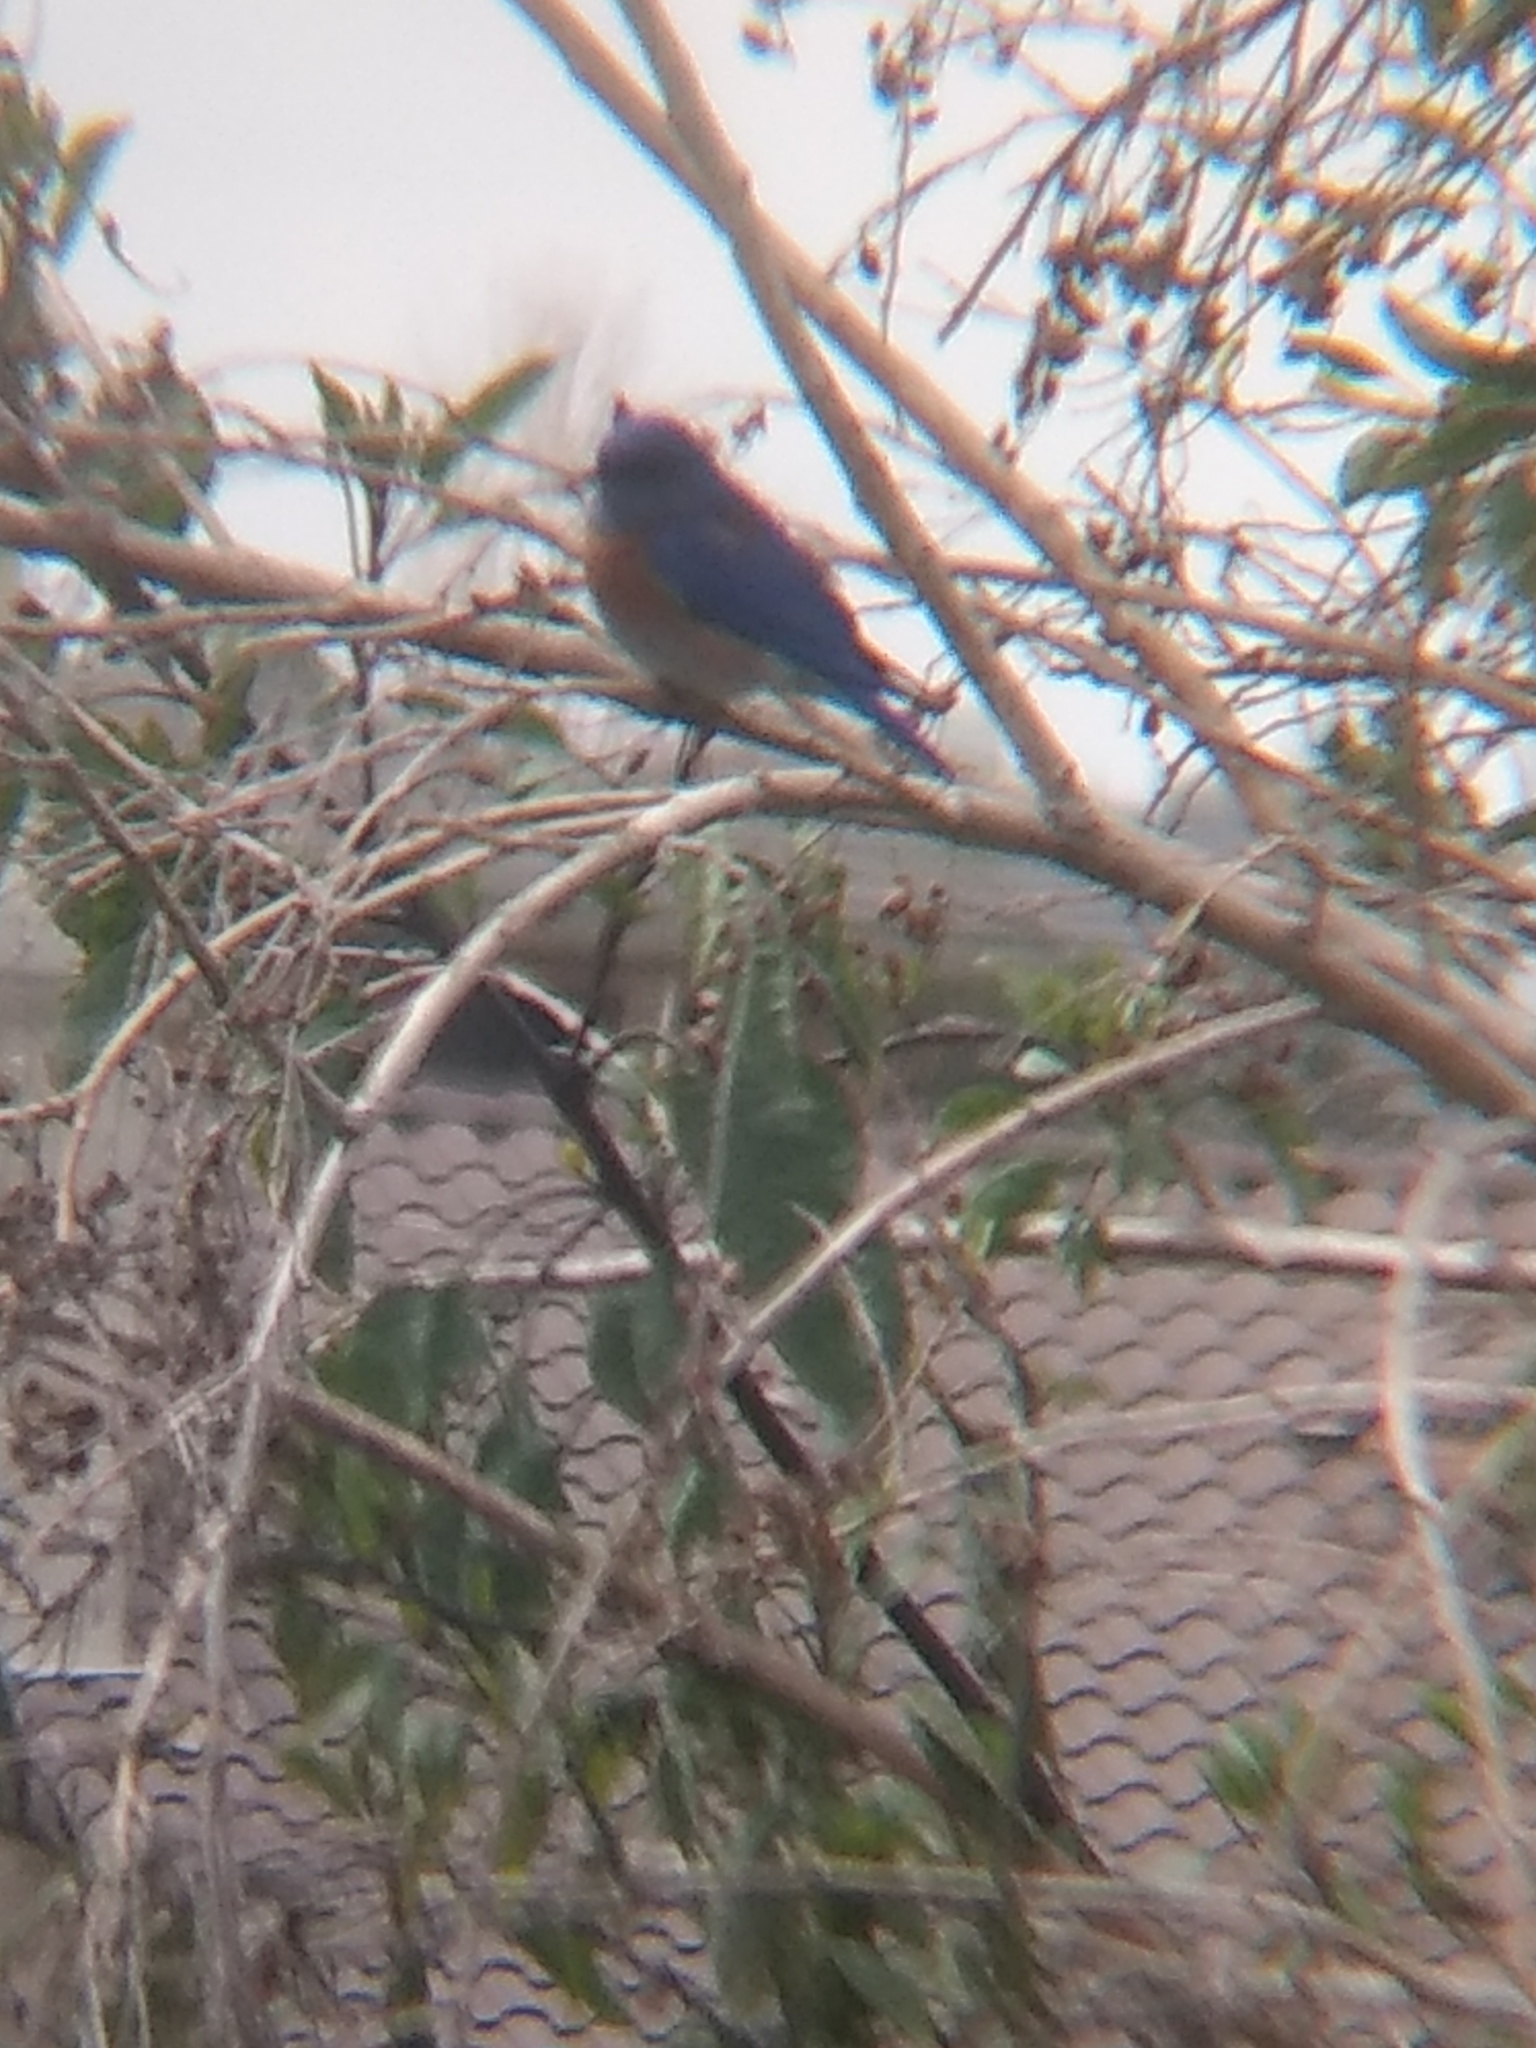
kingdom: Animalia
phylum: Chordata
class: Aves
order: Passeriformes
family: Turdidae
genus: Sialia
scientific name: Sialia mexicana
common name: Western bluebird
